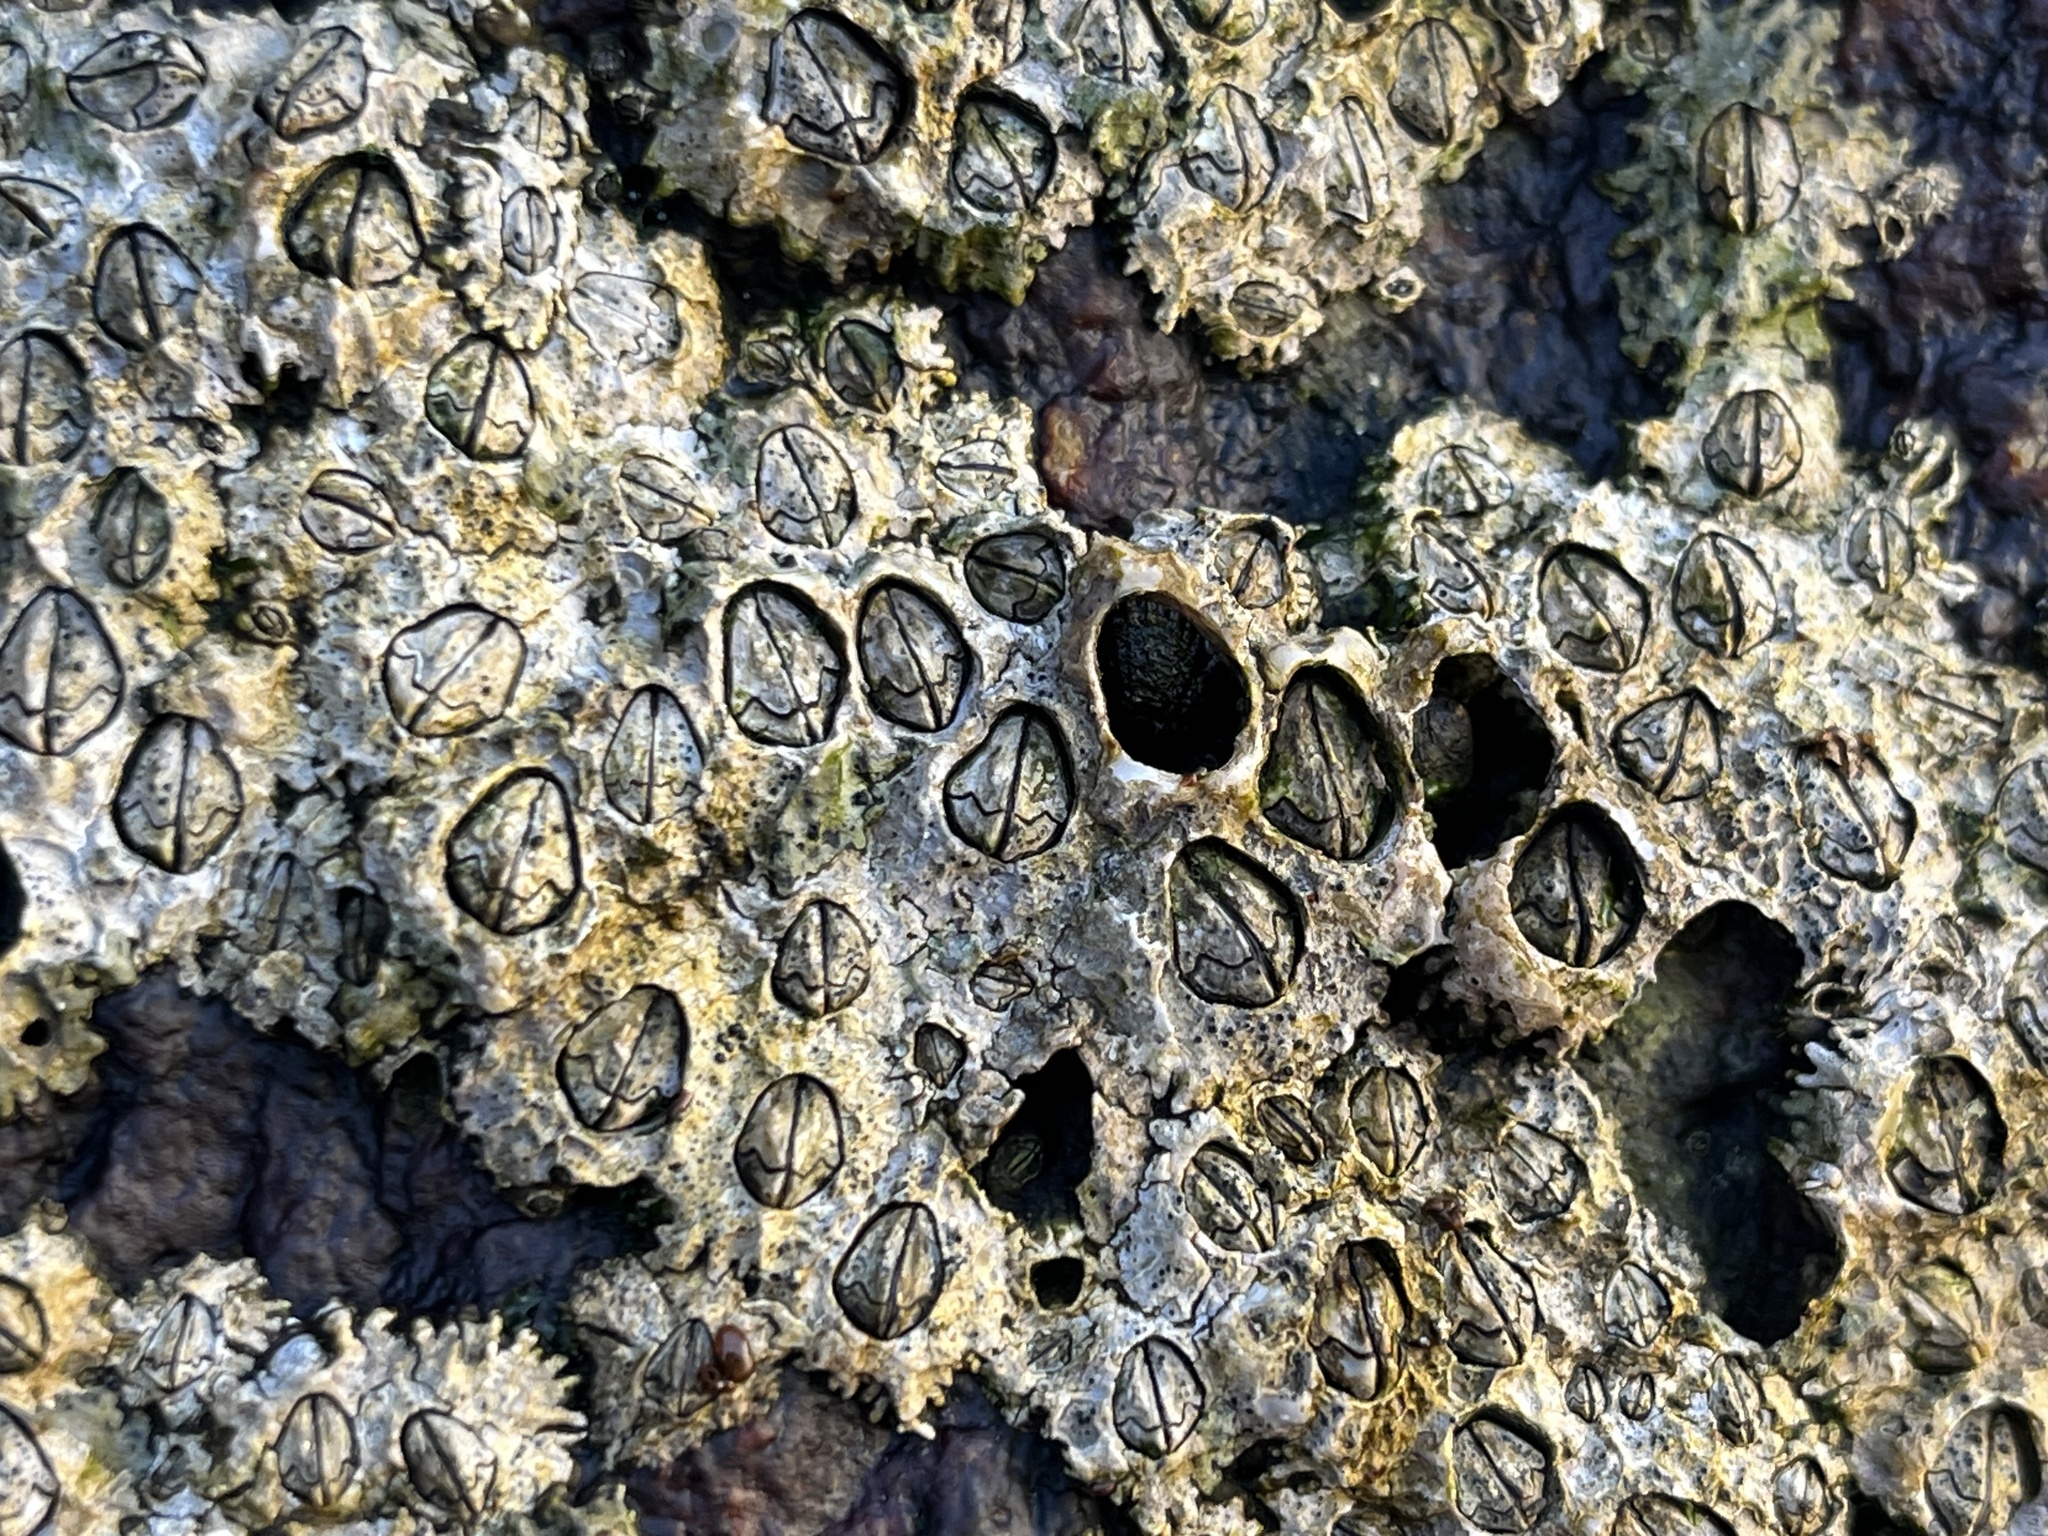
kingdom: Animalia
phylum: Arthropoda
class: Maxillopoda
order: Sessilia
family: Chthamalidae
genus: Jehlius
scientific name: Jehlius cirratus
